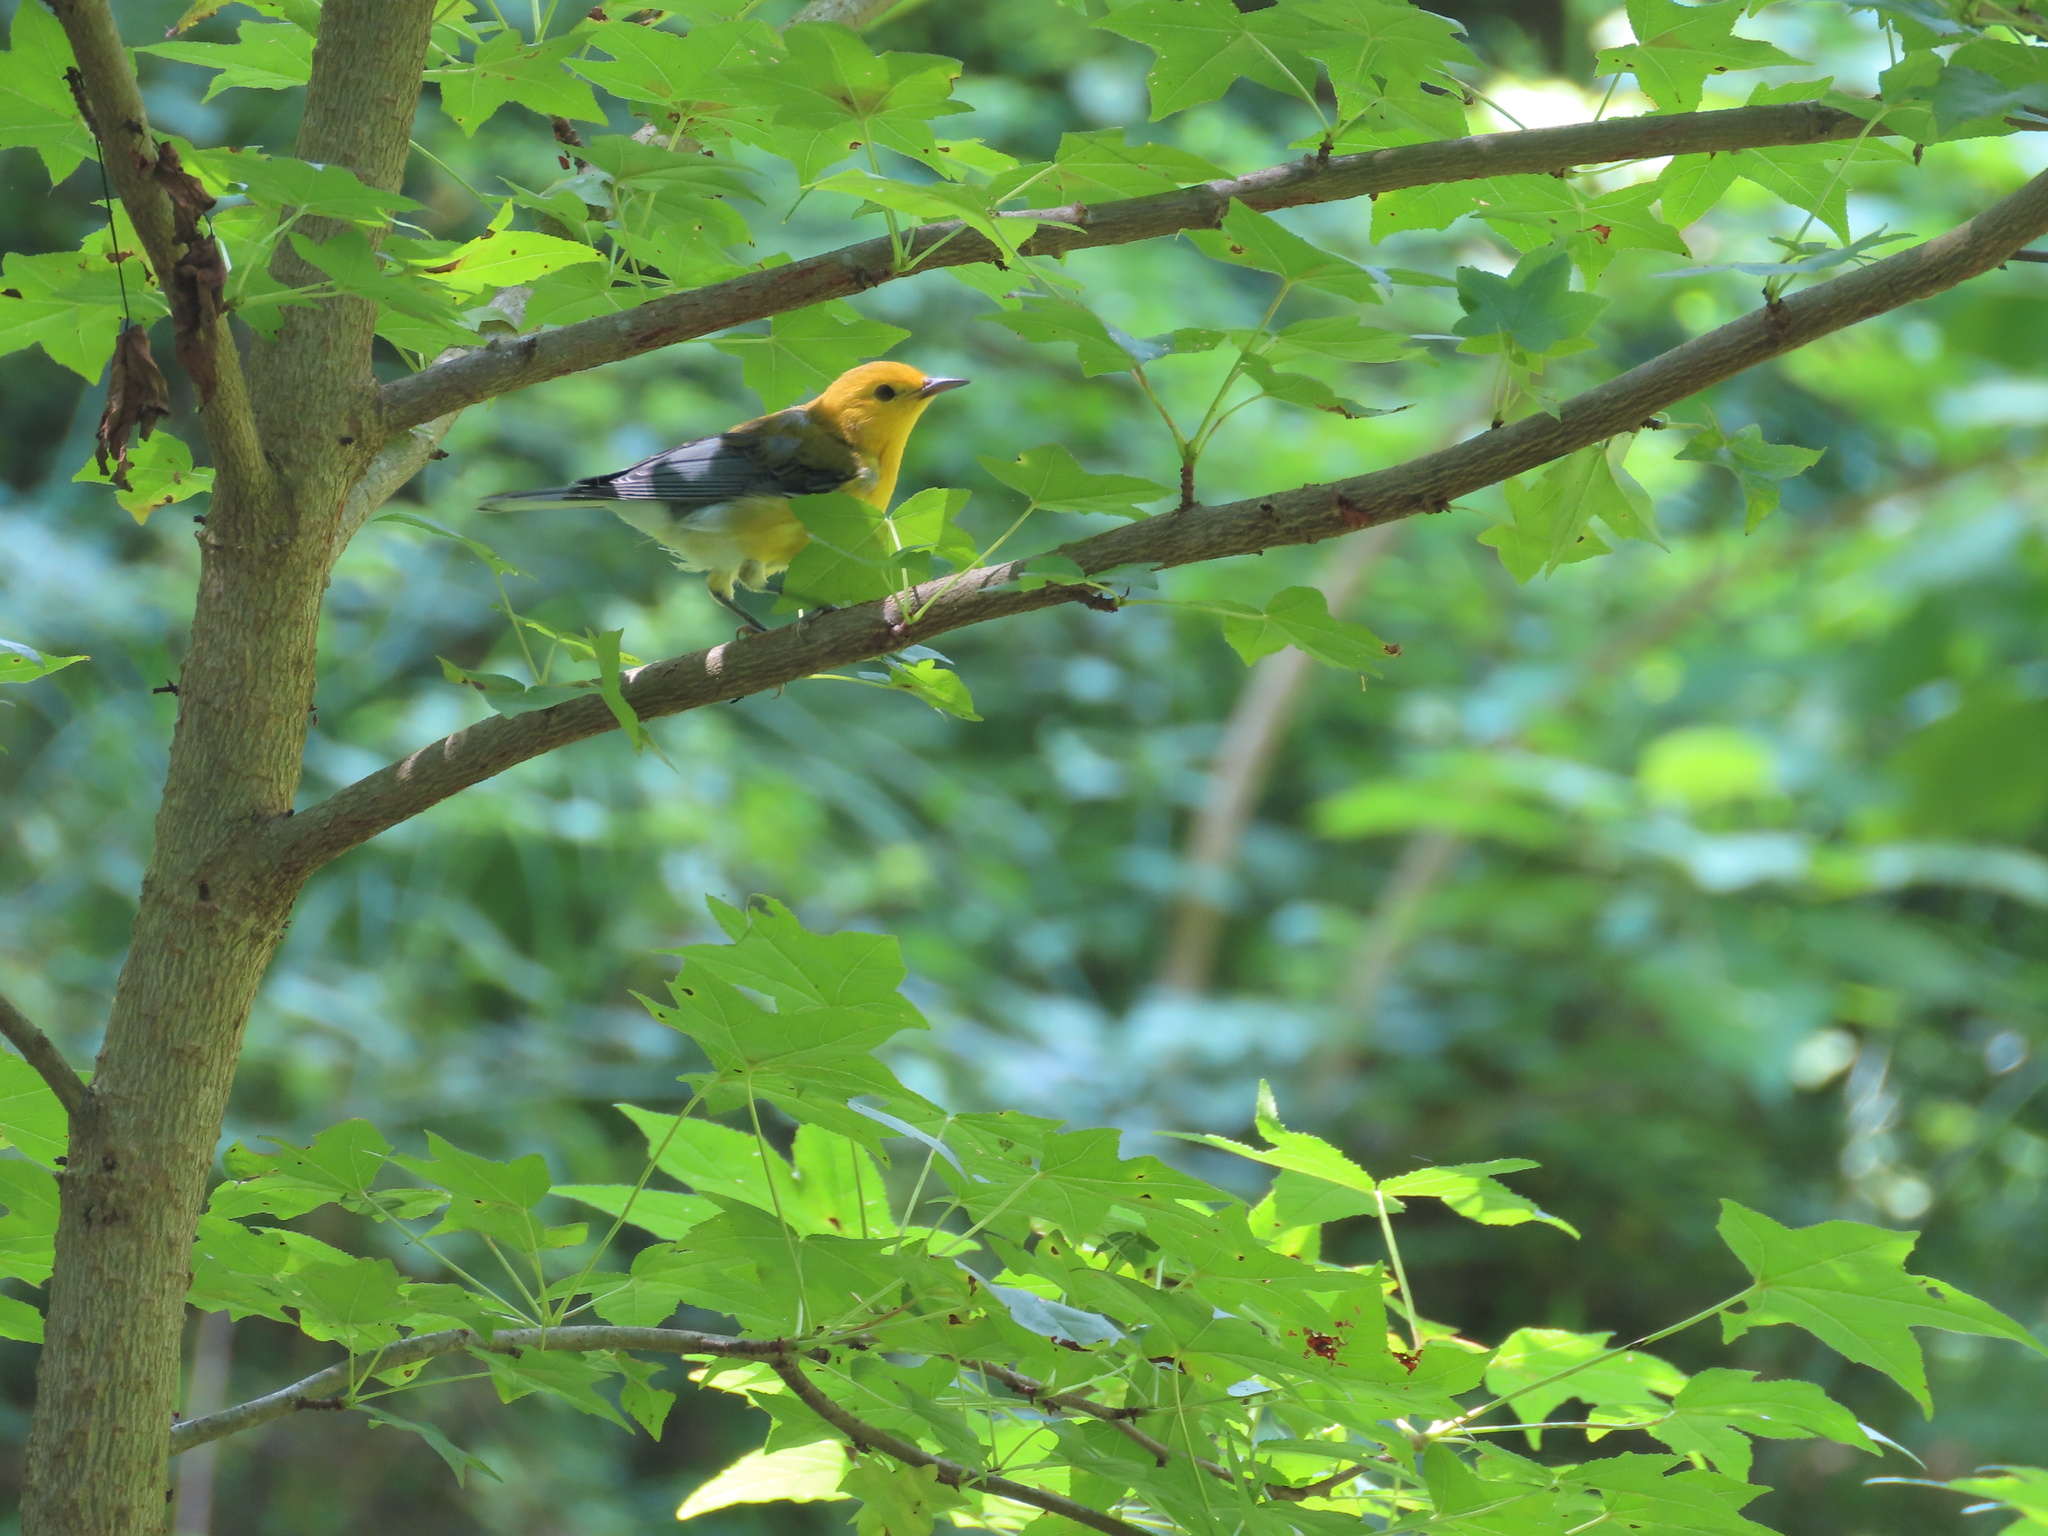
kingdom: Animalia
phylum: Chordata
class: Aves
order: Passeriformes
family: Parulidae
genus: Protonotaria
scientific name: Protonotaria citrea
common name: Prothonotary warbler
